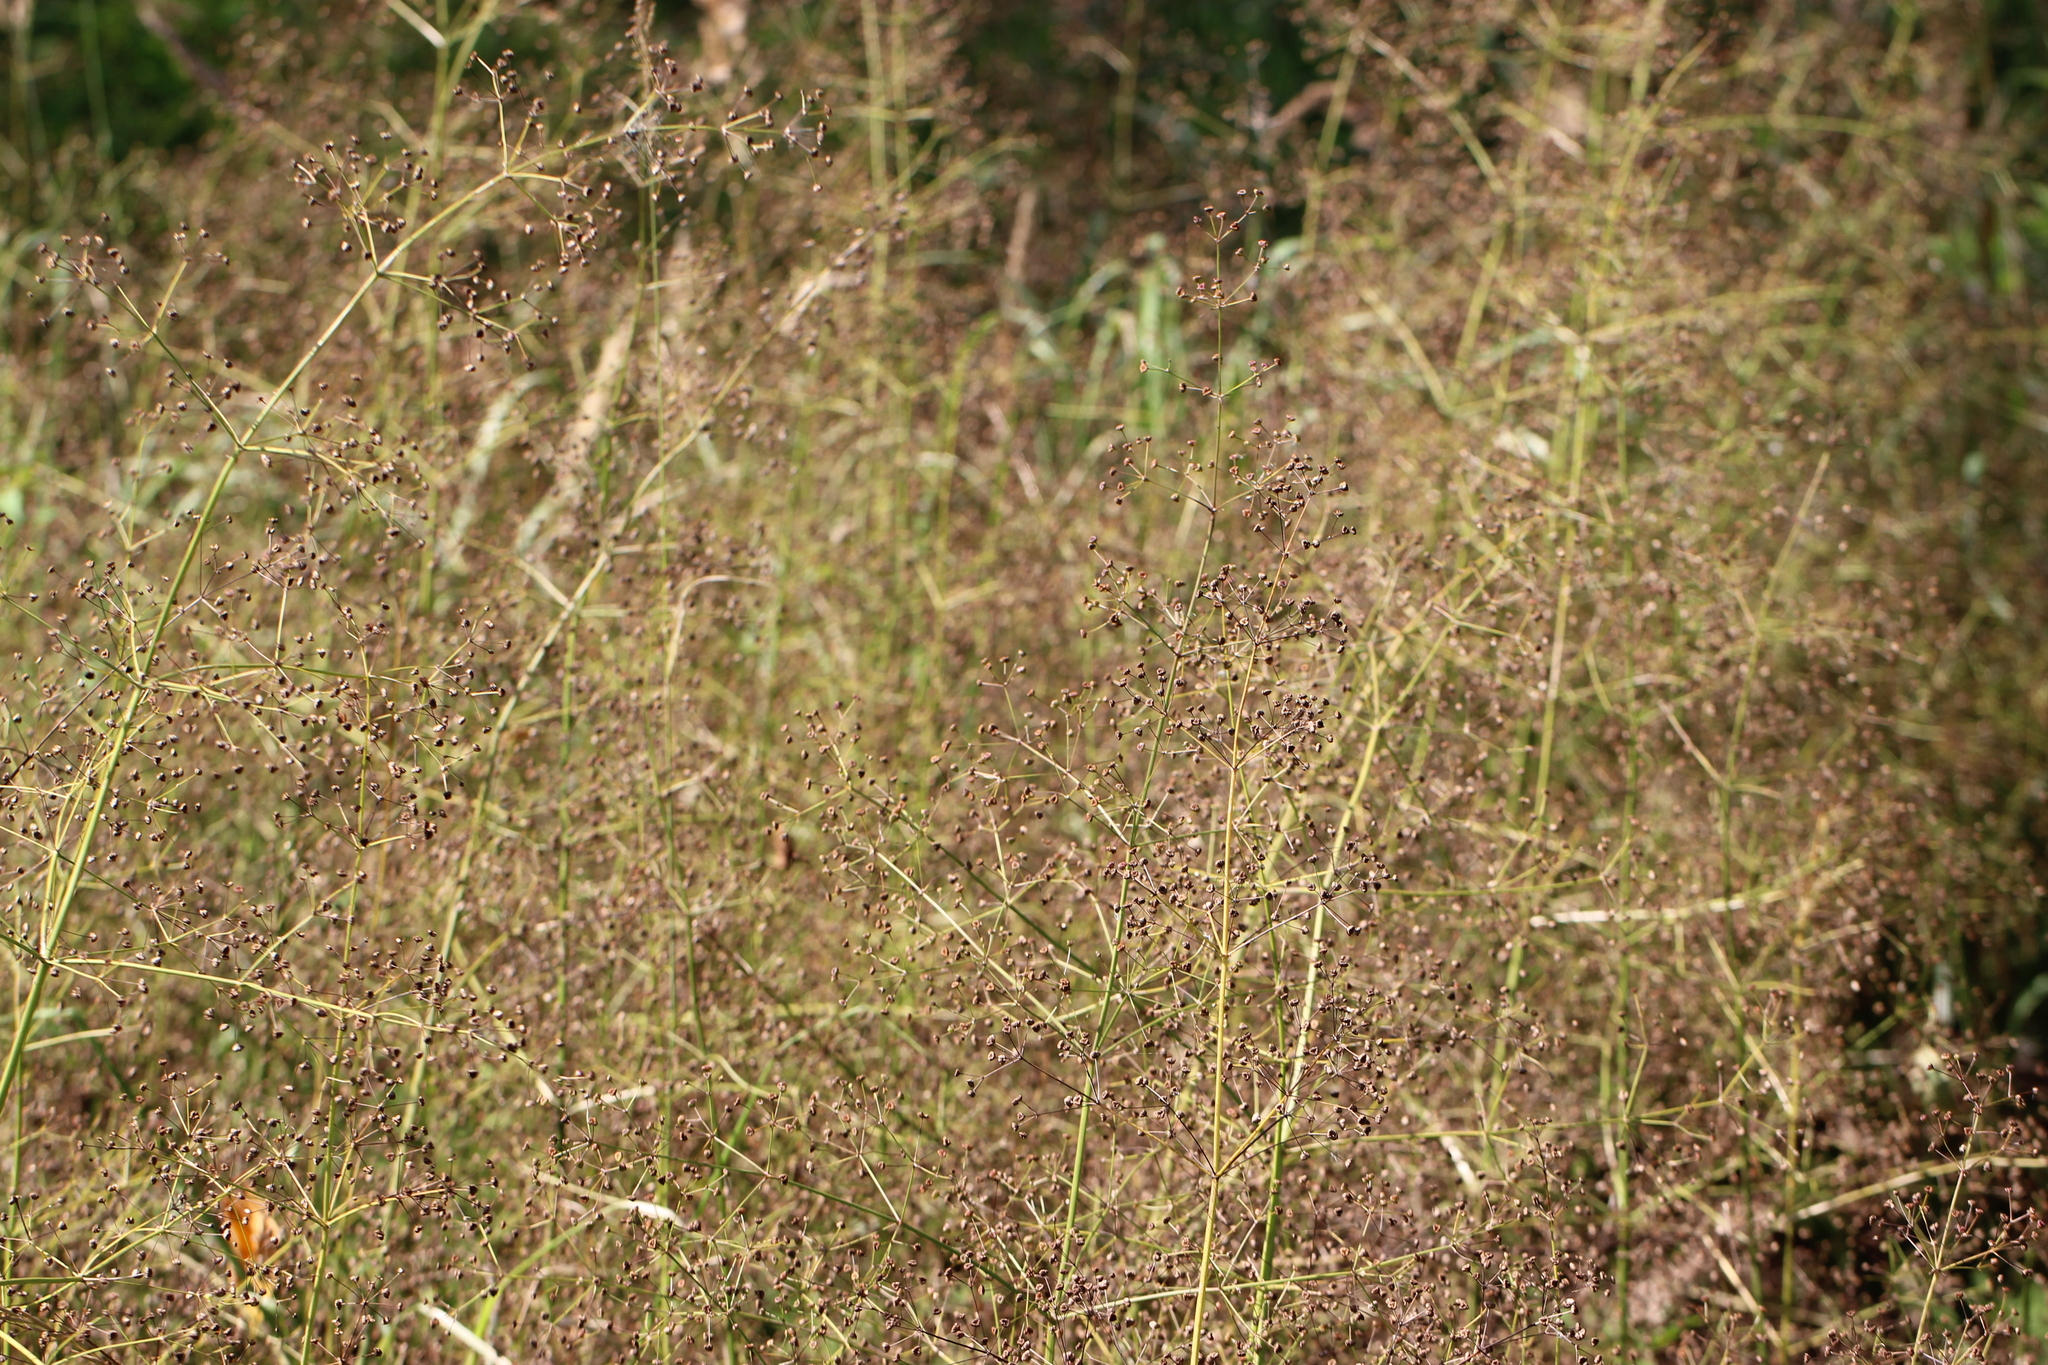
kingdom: Plantae
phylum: Tracheophyta
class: Liliopsida
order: Alismatales
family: Alismataceae
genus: Alisma
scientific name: Alisma plantago-aquatica
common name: Water-plantain
